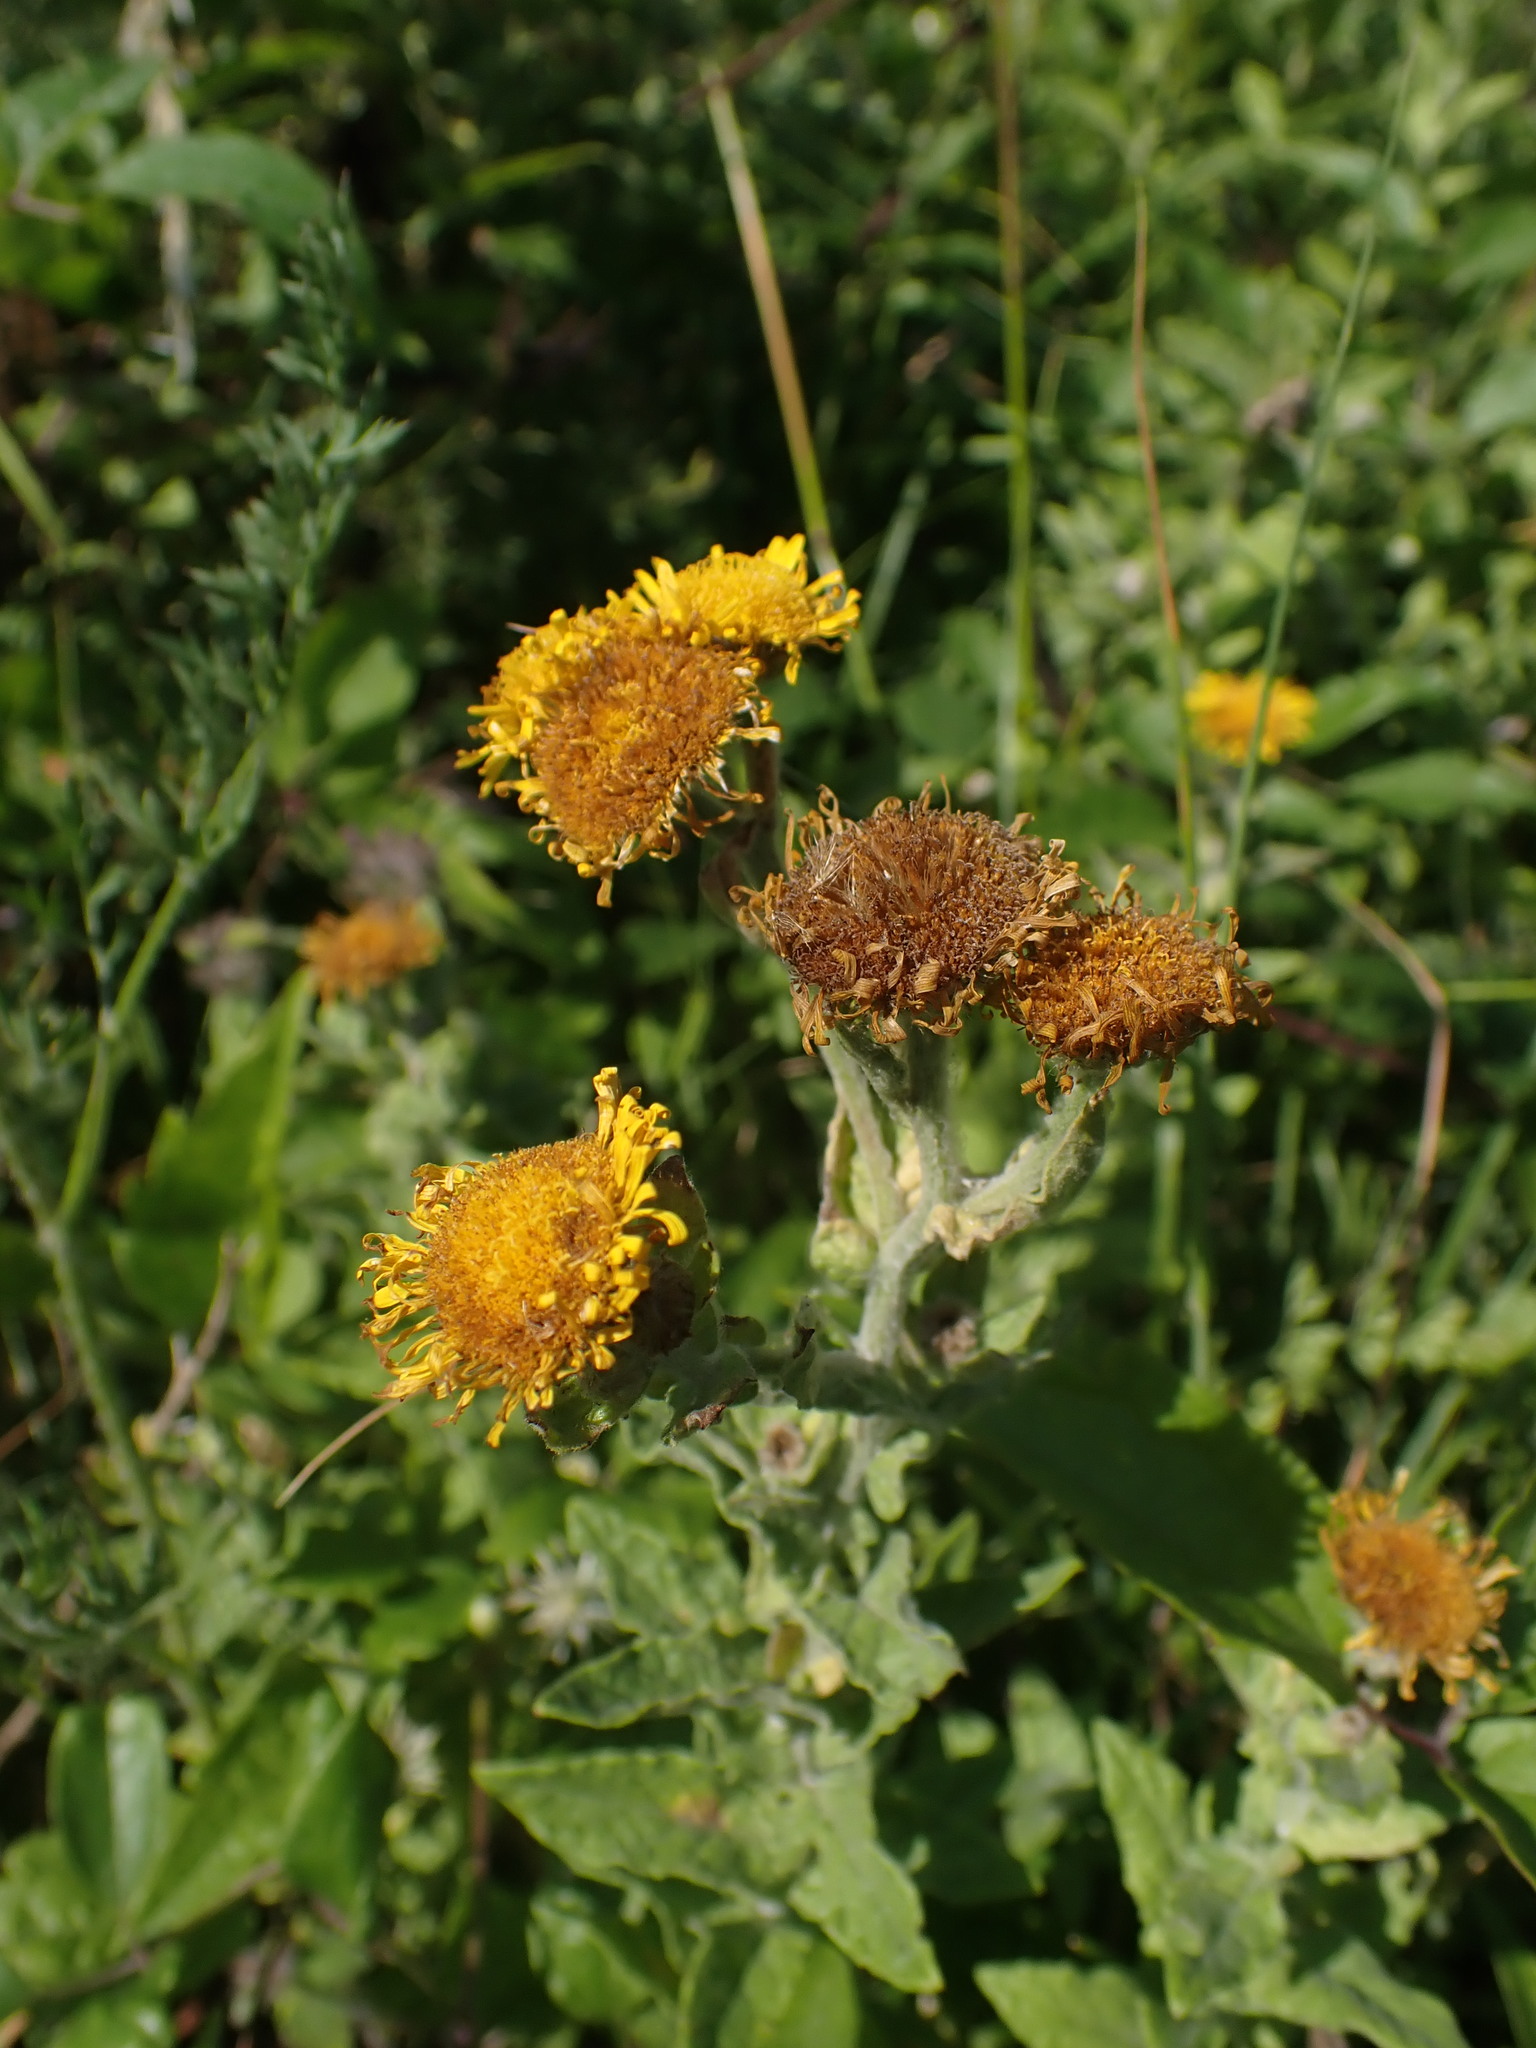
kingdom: Plantae
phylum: Tracheophyta
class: Magnoliopsida
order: Asterales
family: Asteraceae
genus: Pulicaria
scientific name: Pulicaria dysenterica
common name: Common fleabane
